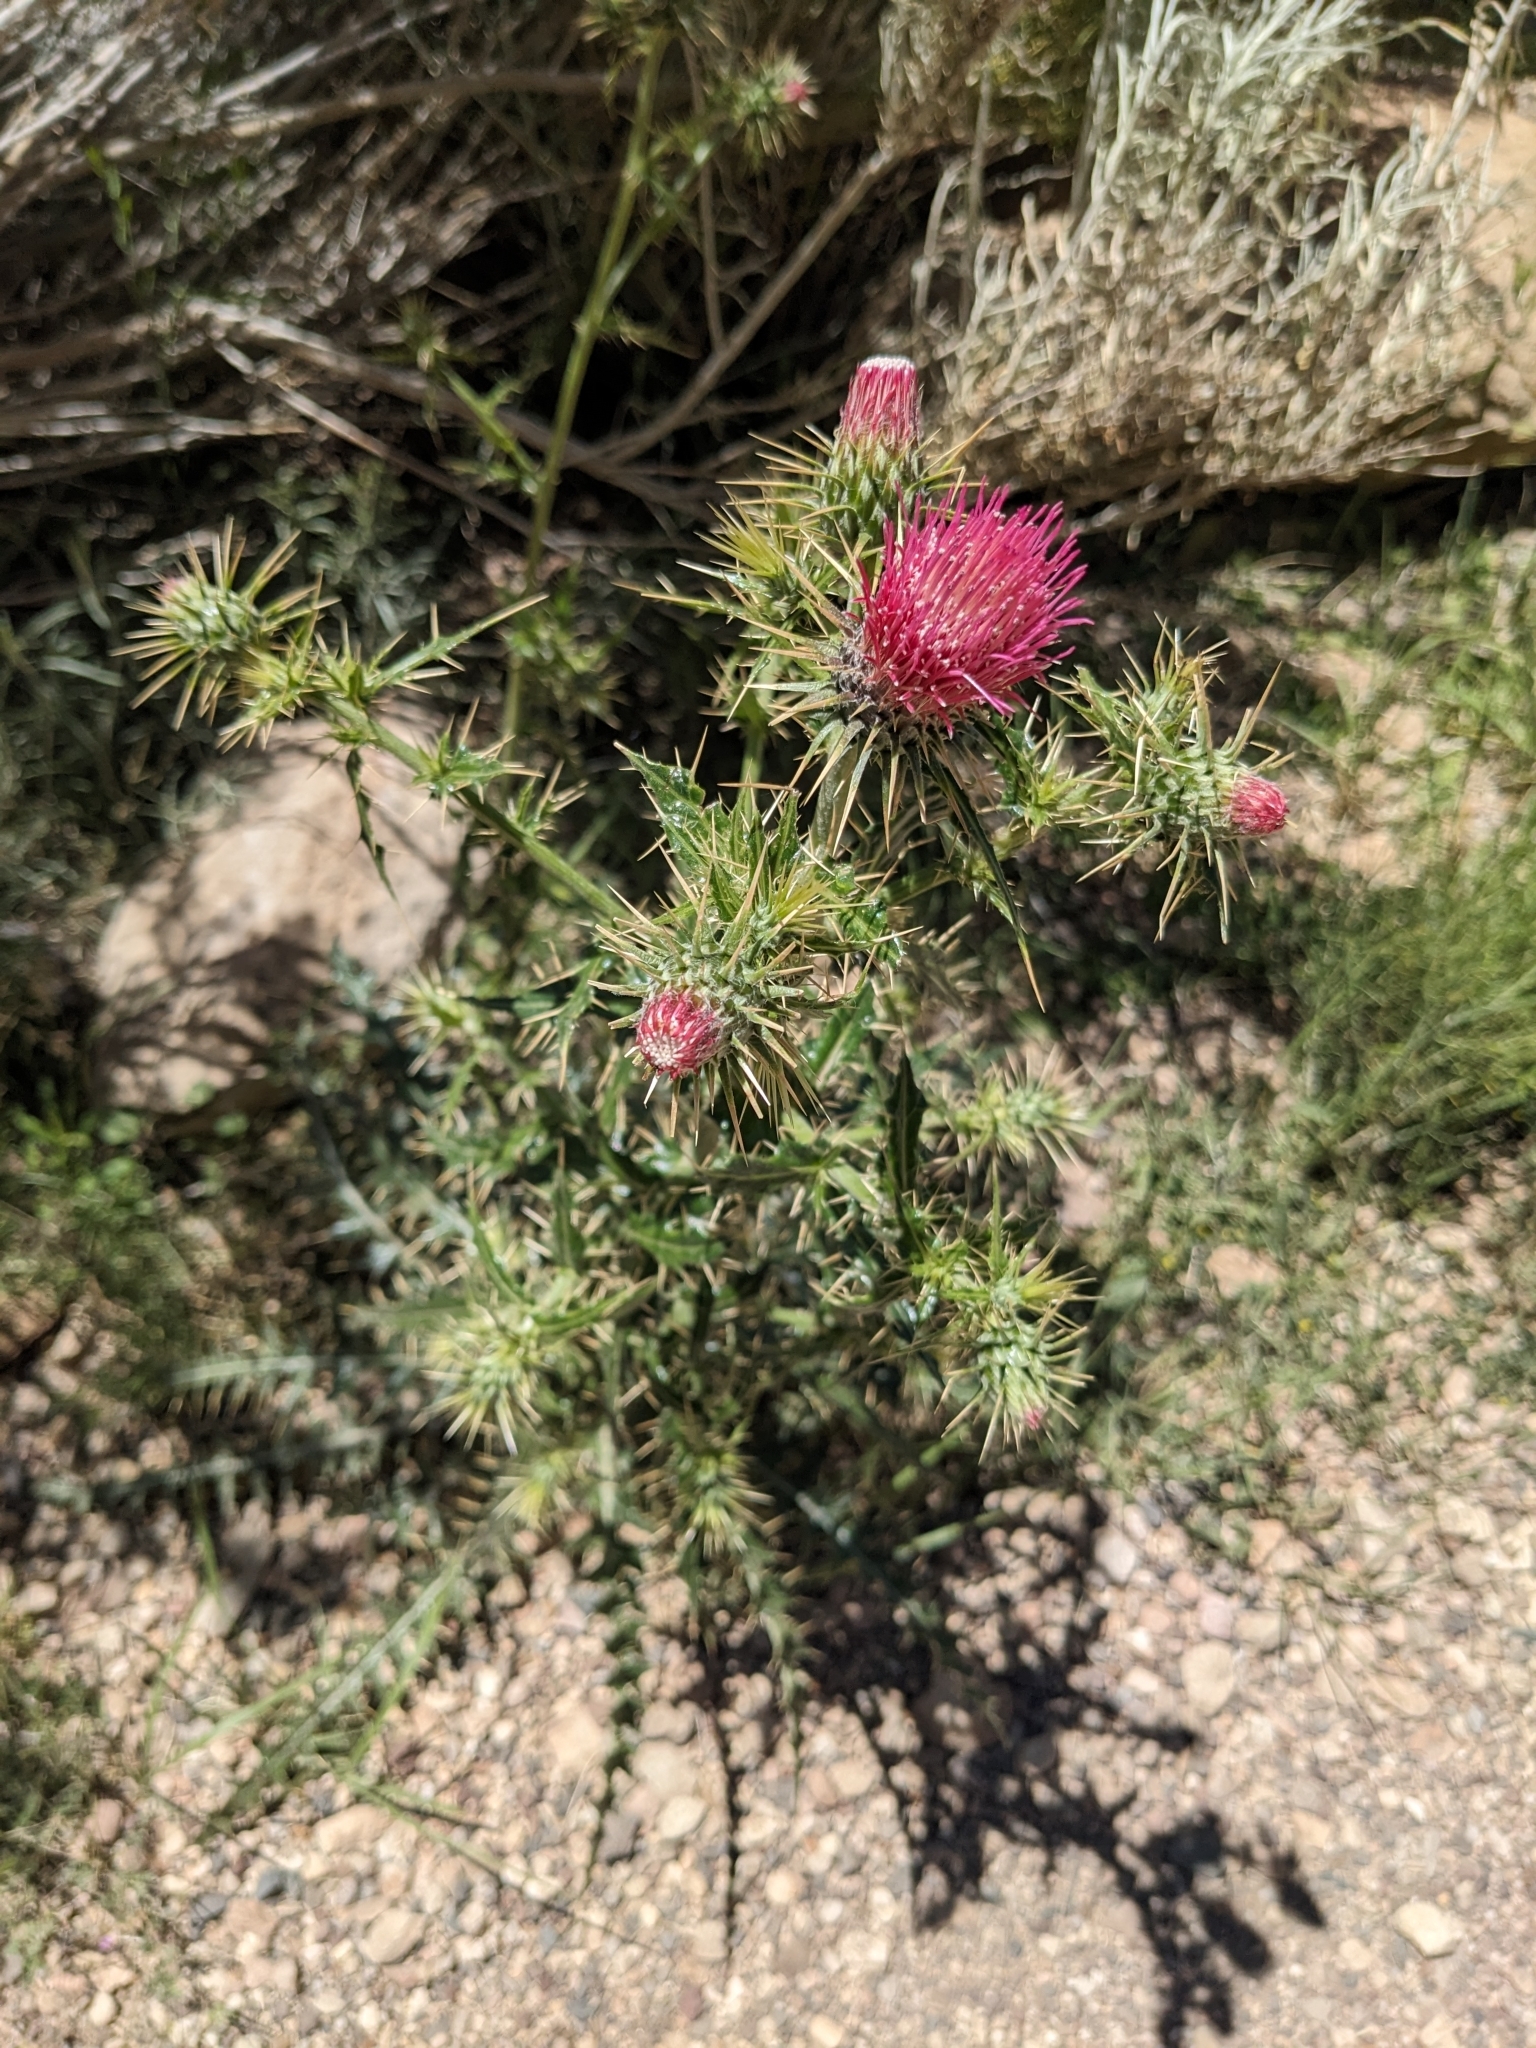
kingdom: Plantae
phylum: Tracheophyta
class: Magnoliopsida
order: Asterales
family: Asteraceae
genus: Cirsium
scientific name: Cirsium arizonicum
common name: Arizona thistle
